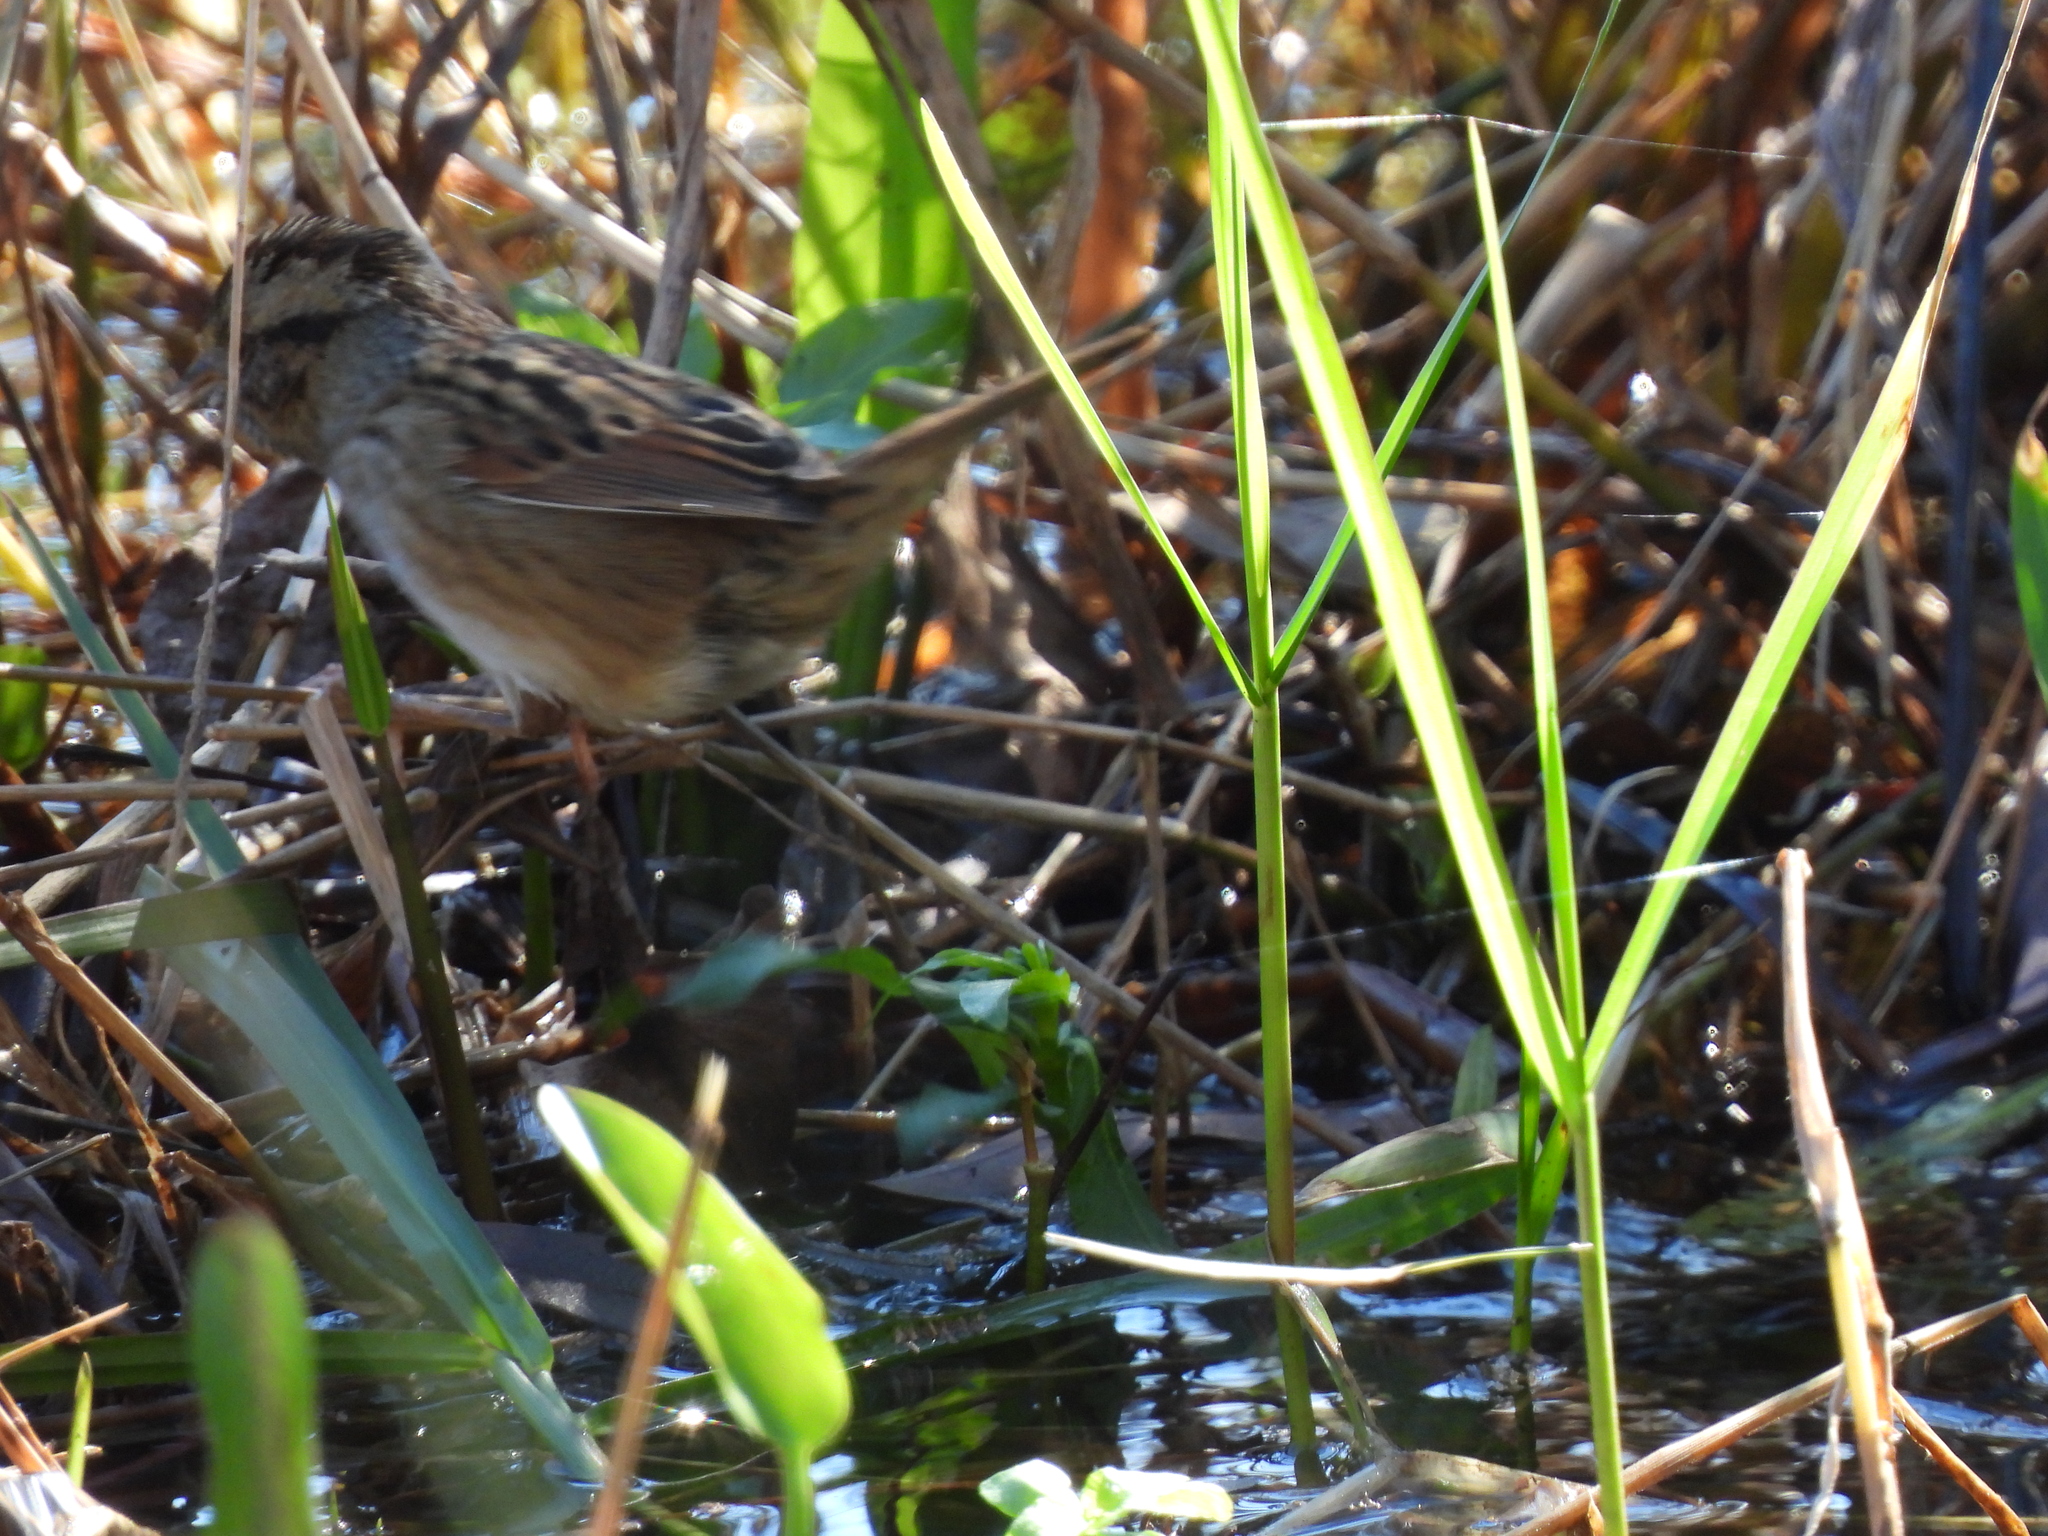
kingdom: Animalia
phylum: Chordata
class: Aves
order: Passeriformes
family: Passerellidae
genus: Melospiza
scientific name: Melospiza georgiana
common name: Swamp sparrow
